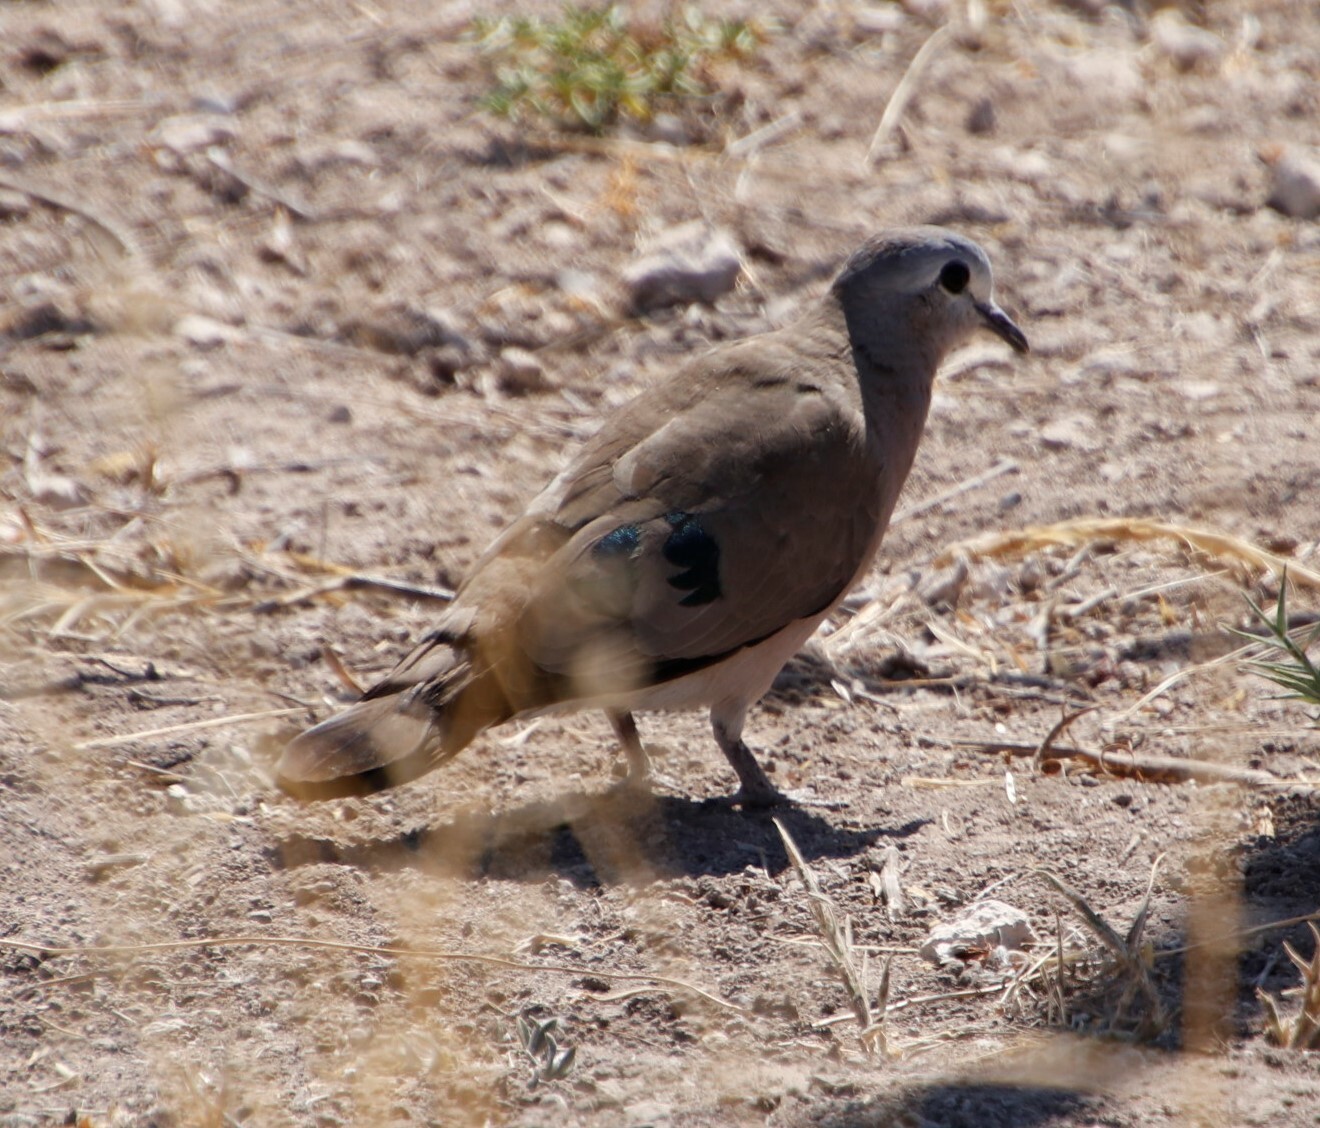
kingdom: Animalia
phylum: Chordata
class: Aves
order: Columbiformes
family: Columbidae
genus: Turtur
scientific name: Turtur chalcospilos
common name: Emerald-spotted wood dove
